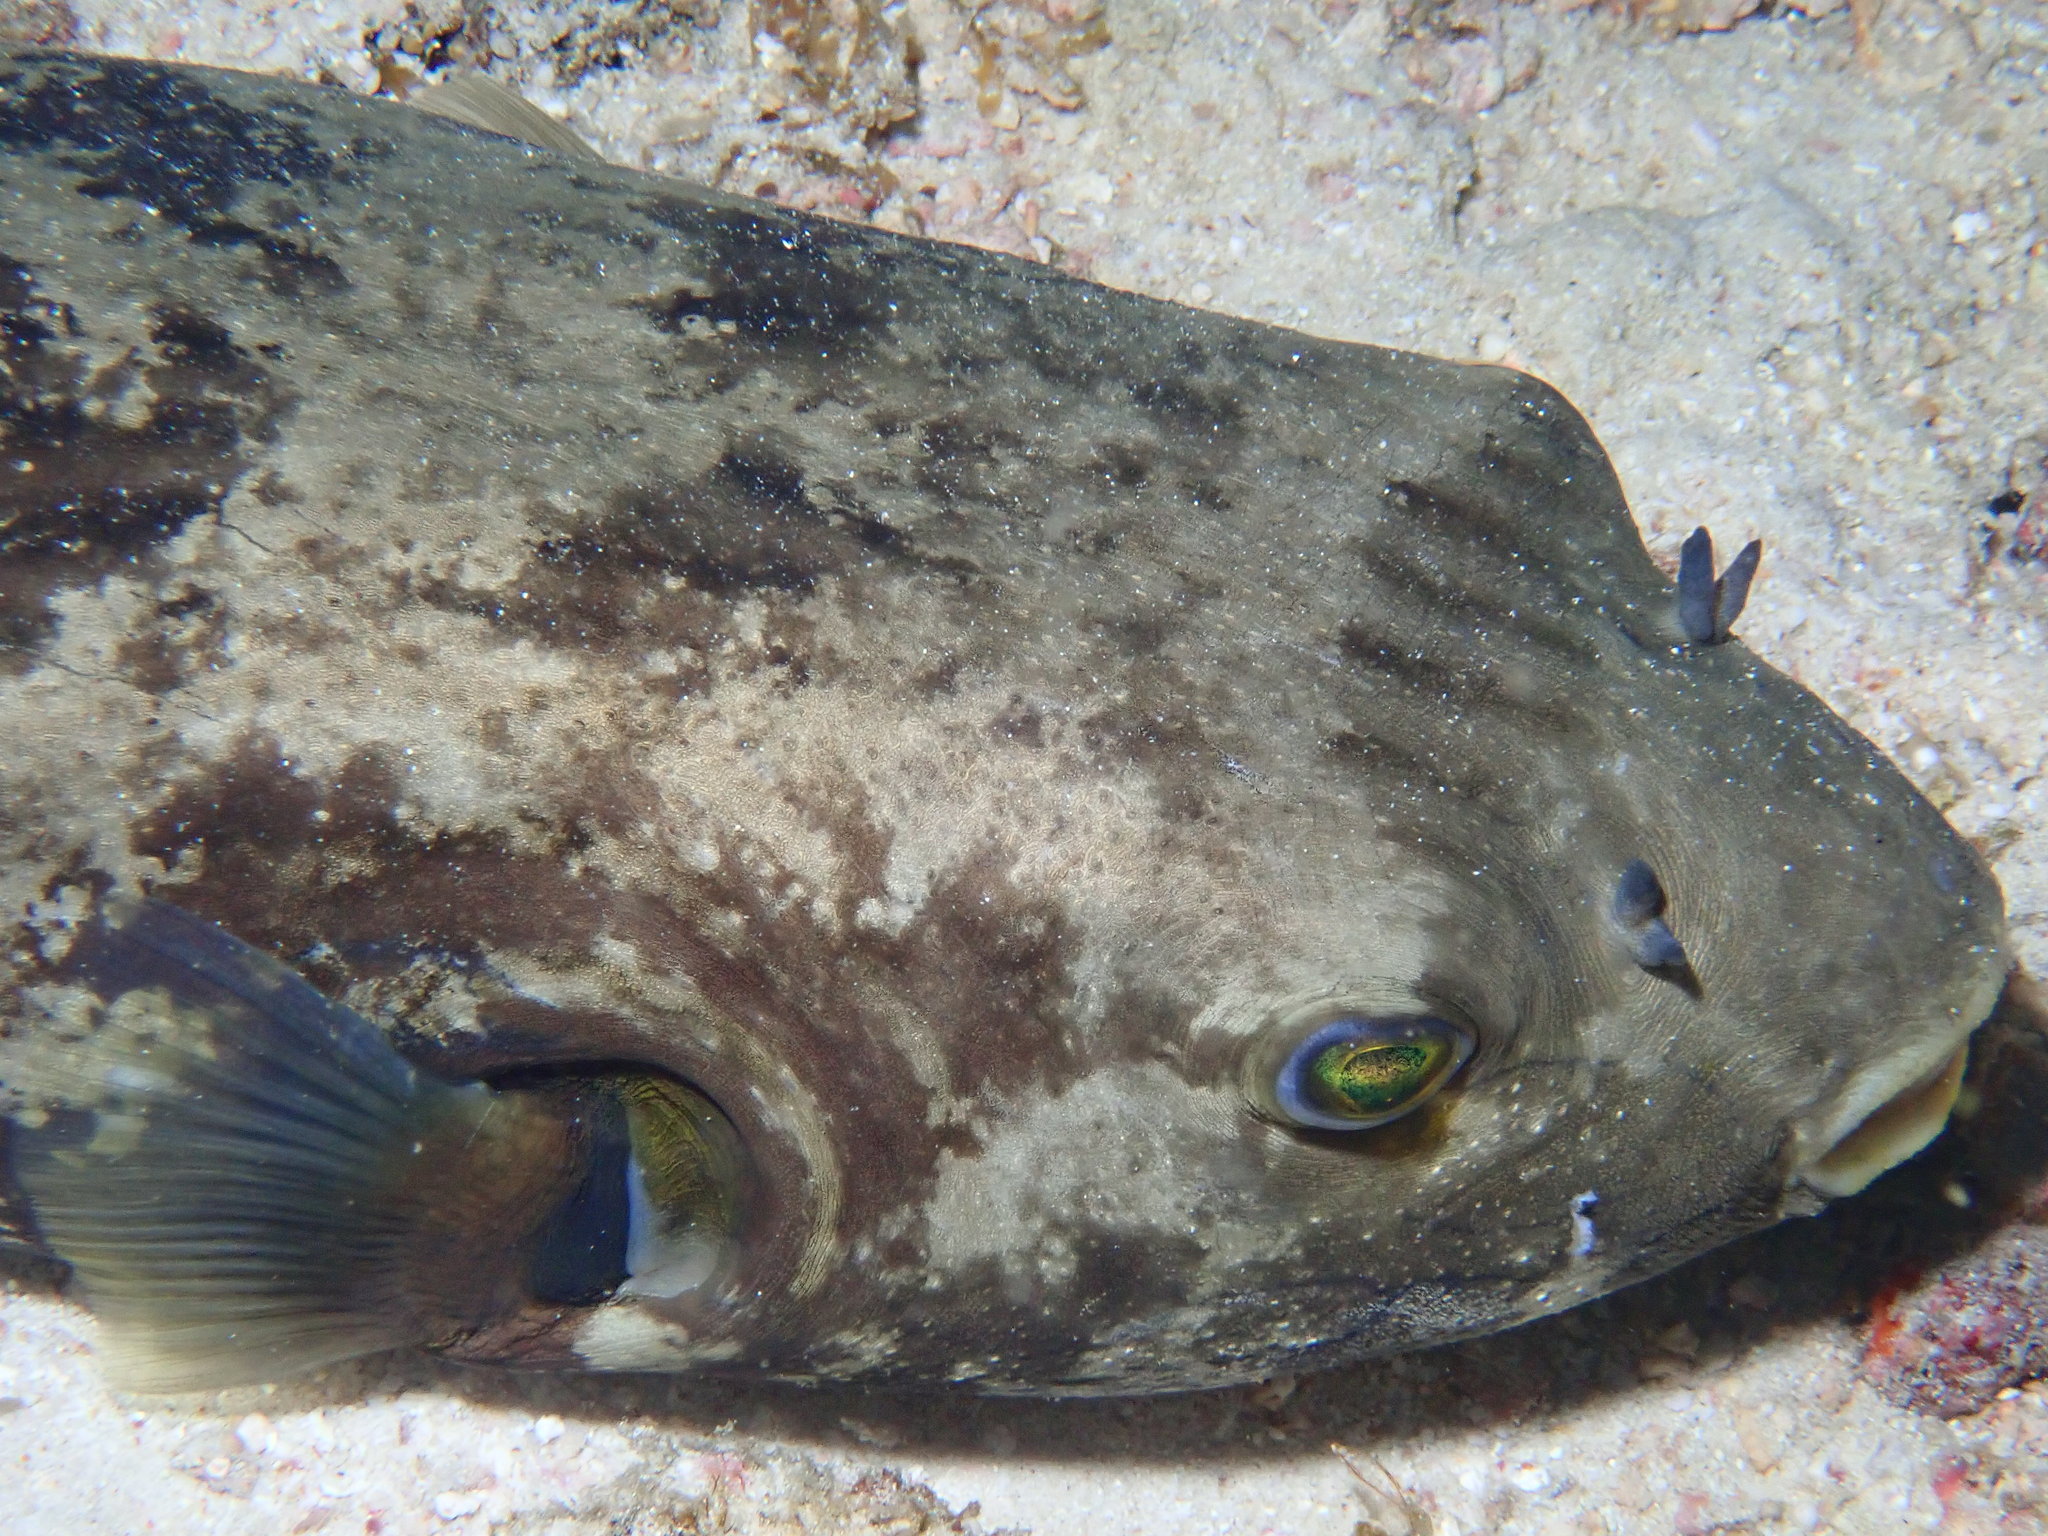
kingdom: Animalia
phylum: Chordata
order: Tetraodontiformes
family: Tetraodontidae
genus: Arothron
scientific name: Arothron immaculatus
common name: Blackedged blaasop
